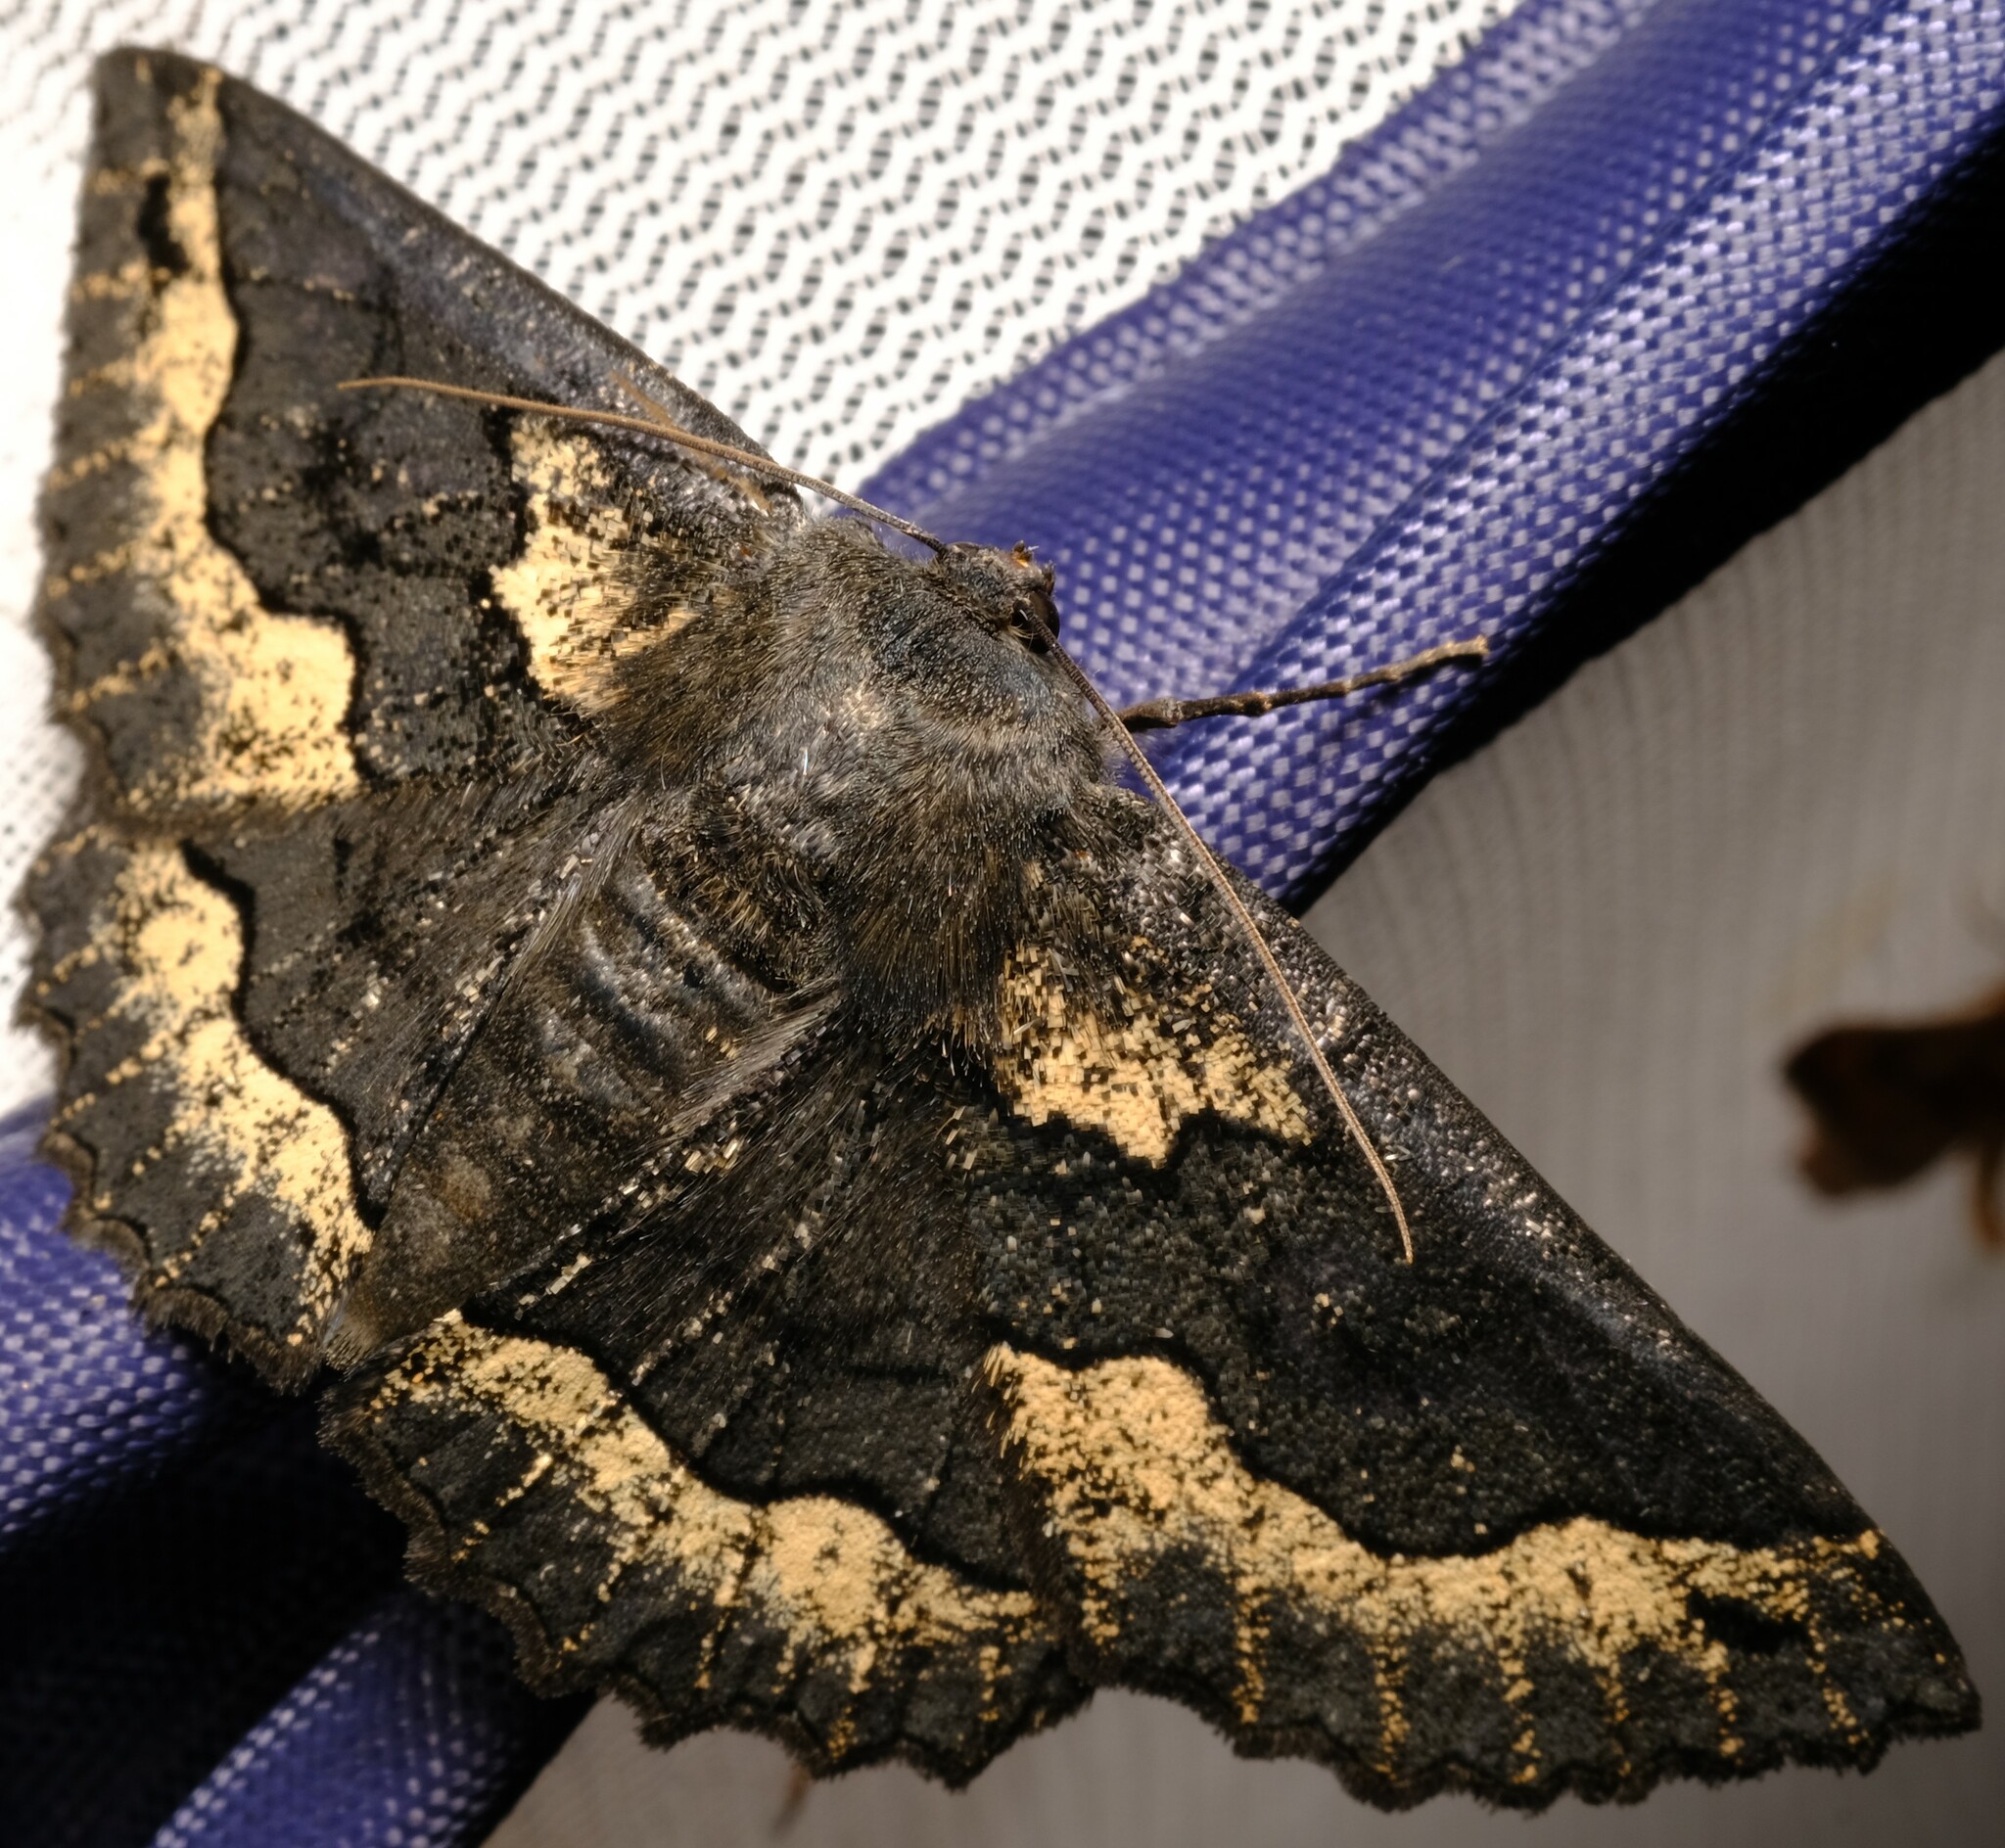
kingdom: Animalia
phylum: Arthropoda
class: Insecta
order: Lepidoptera
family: Geometridae
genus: Melanodes
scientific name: Melanodes anthracitaria
